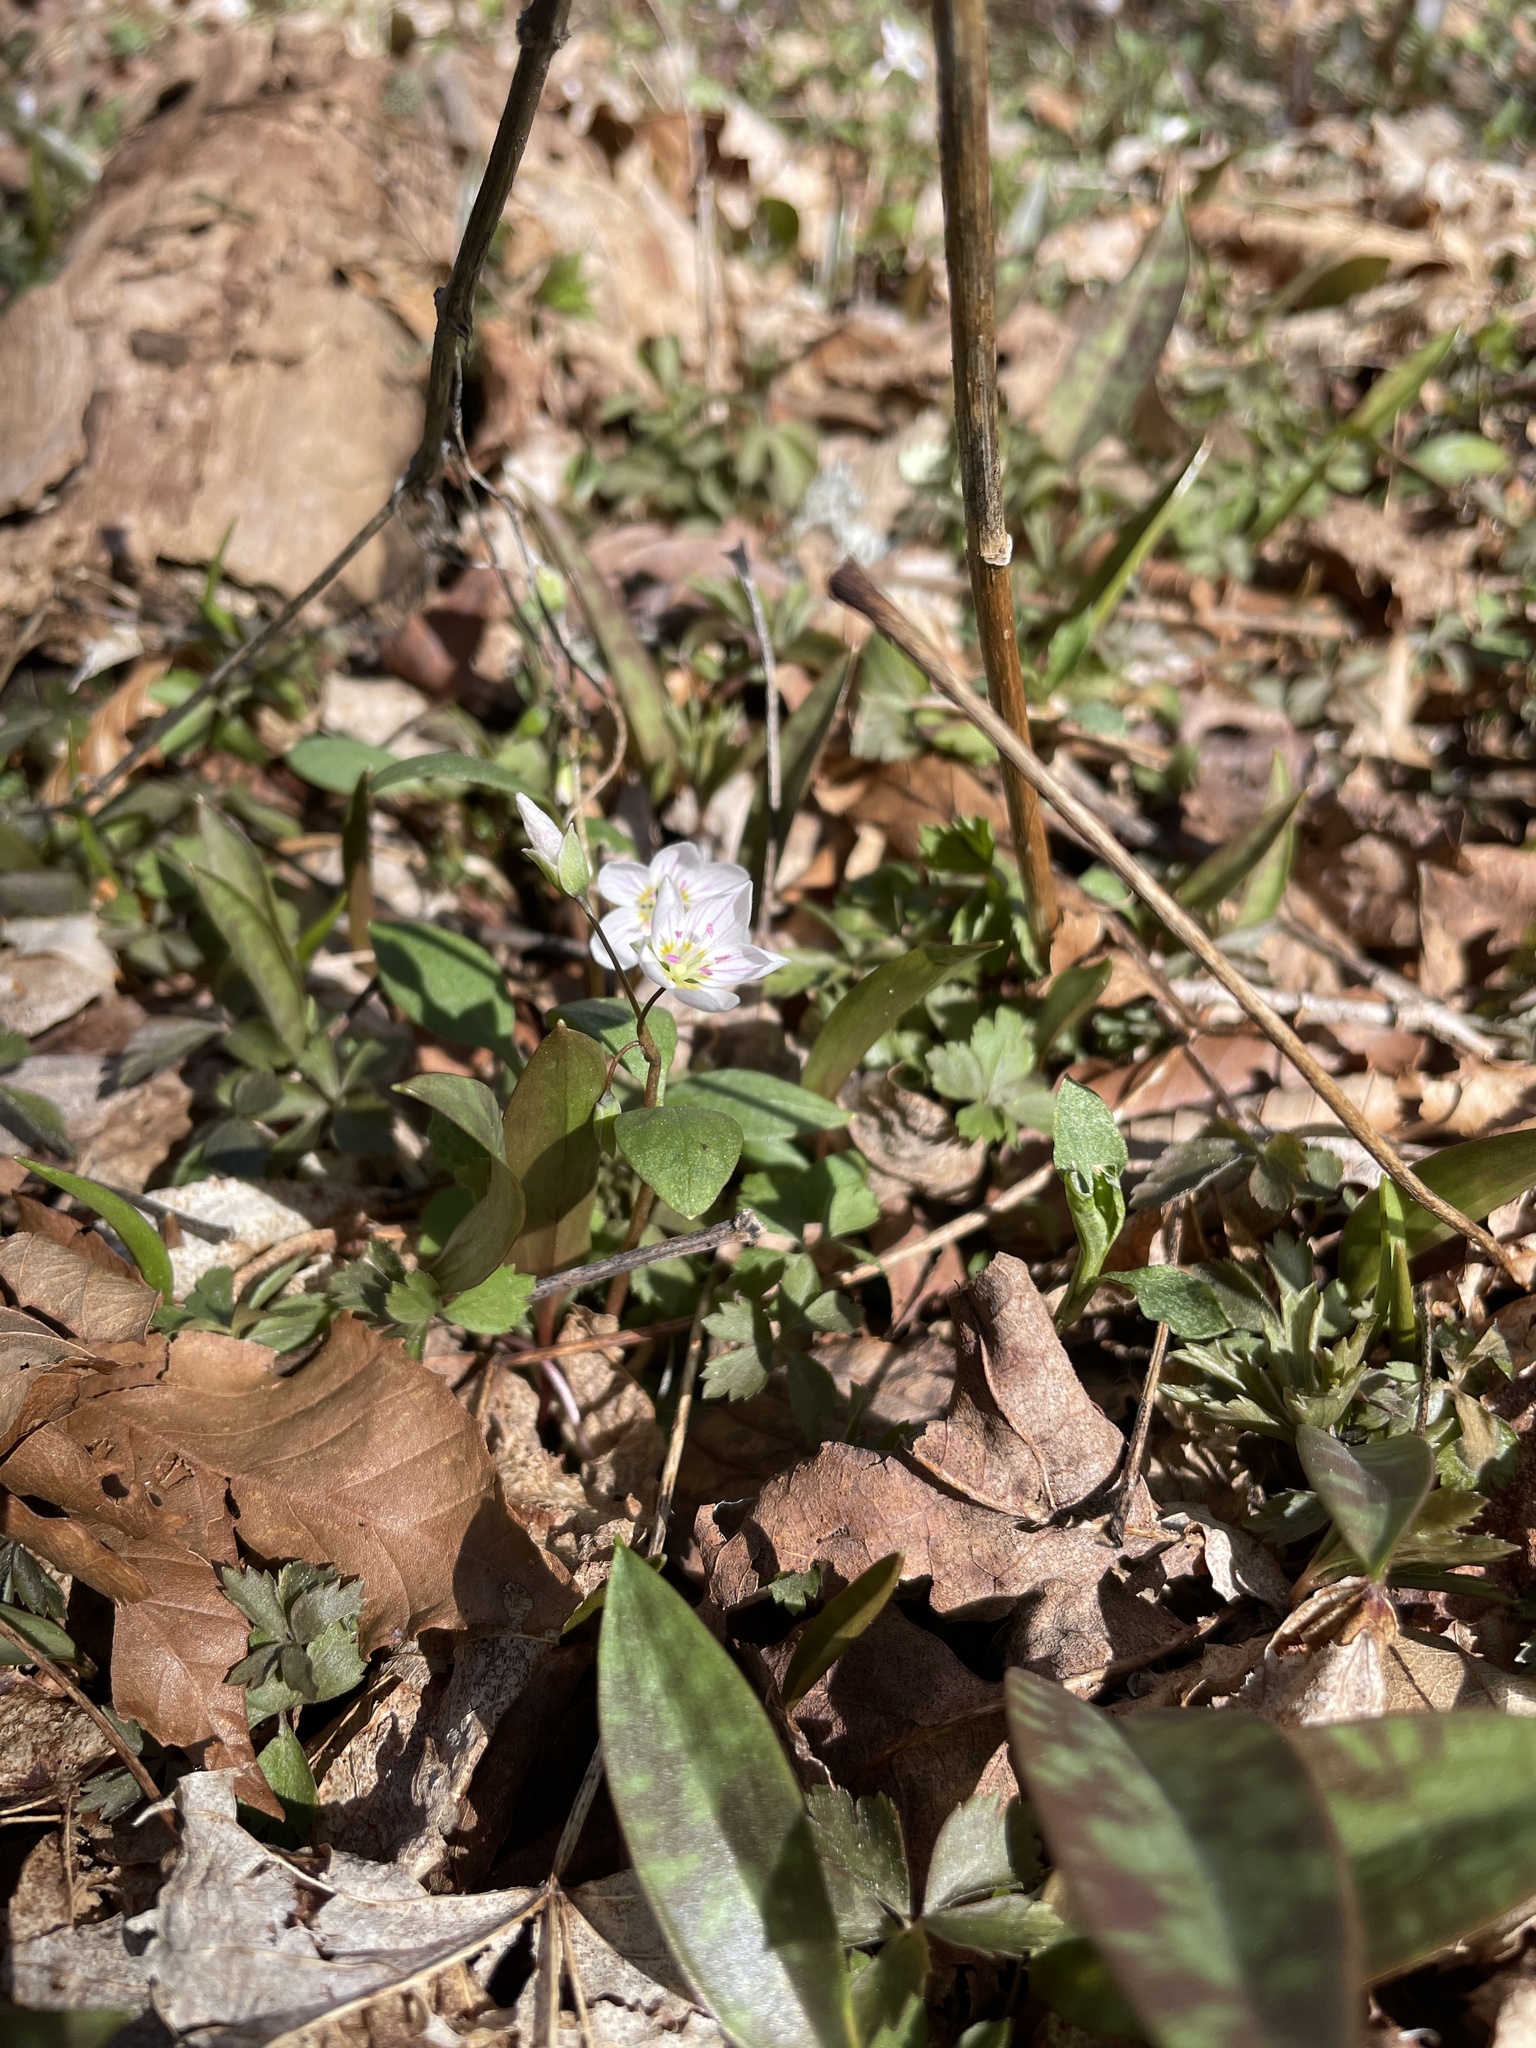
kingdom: Plantae
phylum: Tracheophyta
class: Magnoliopsida
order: Caryophyllales
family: Montiaceae
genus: Claytonia
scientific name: Claytonia caroliniana
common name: Carolina spring beauty
